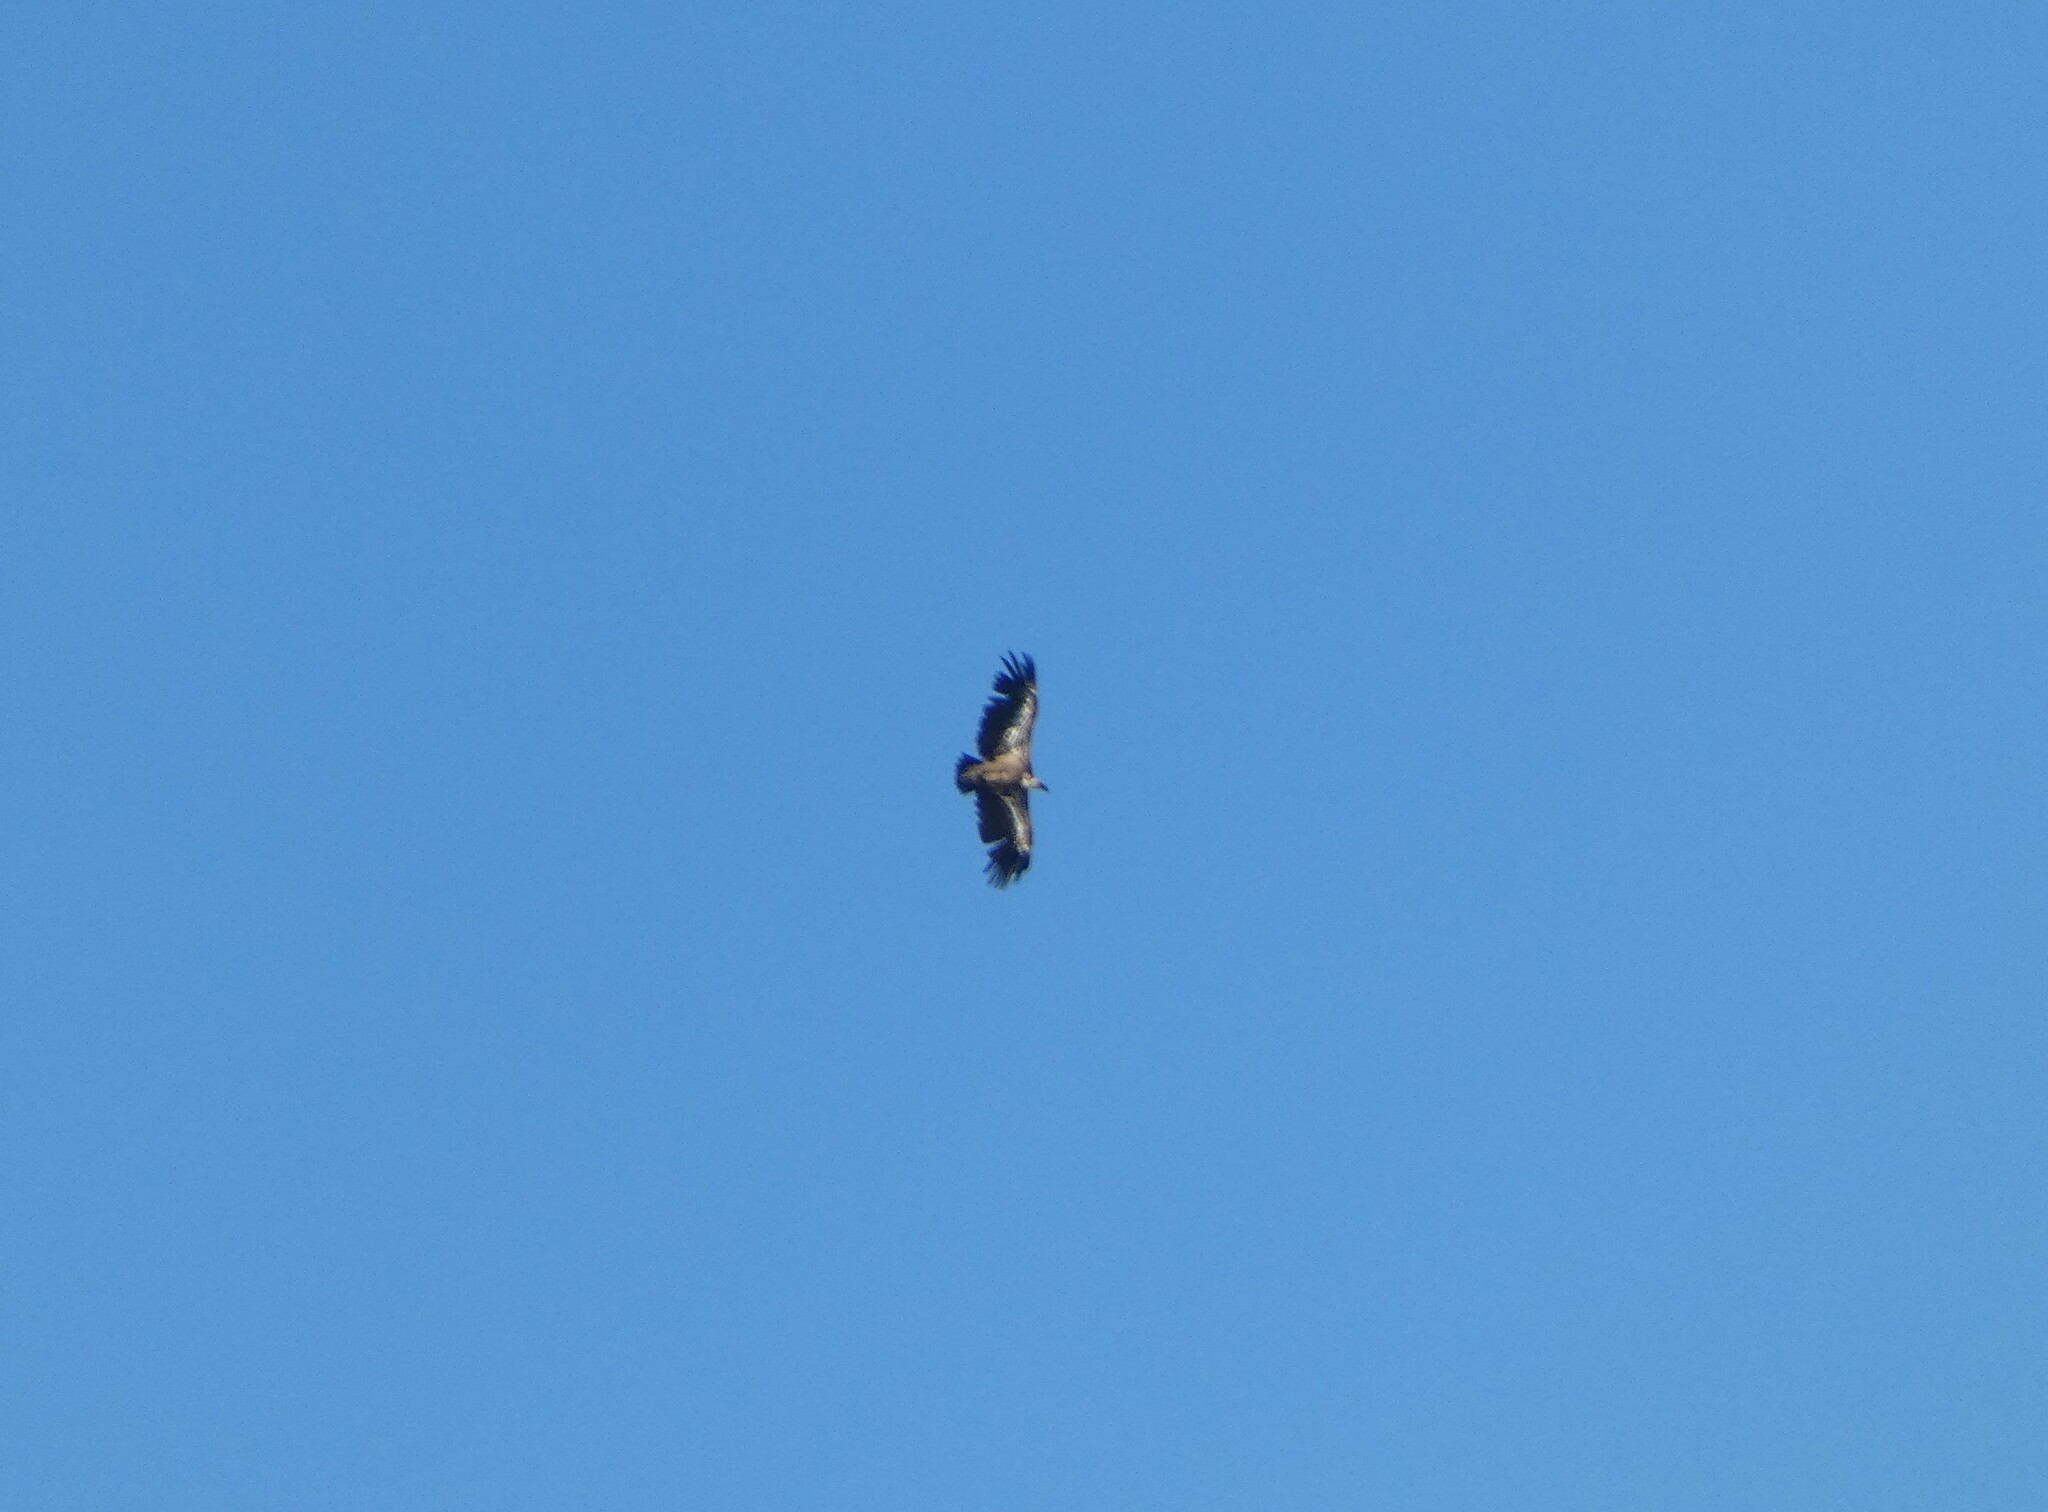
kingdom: Animalia
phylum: Chordata
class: Aves
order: Accipitriformes
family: Accipitridae
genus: Gyps
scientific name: Gyps fulvus
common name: Griffon vulture
